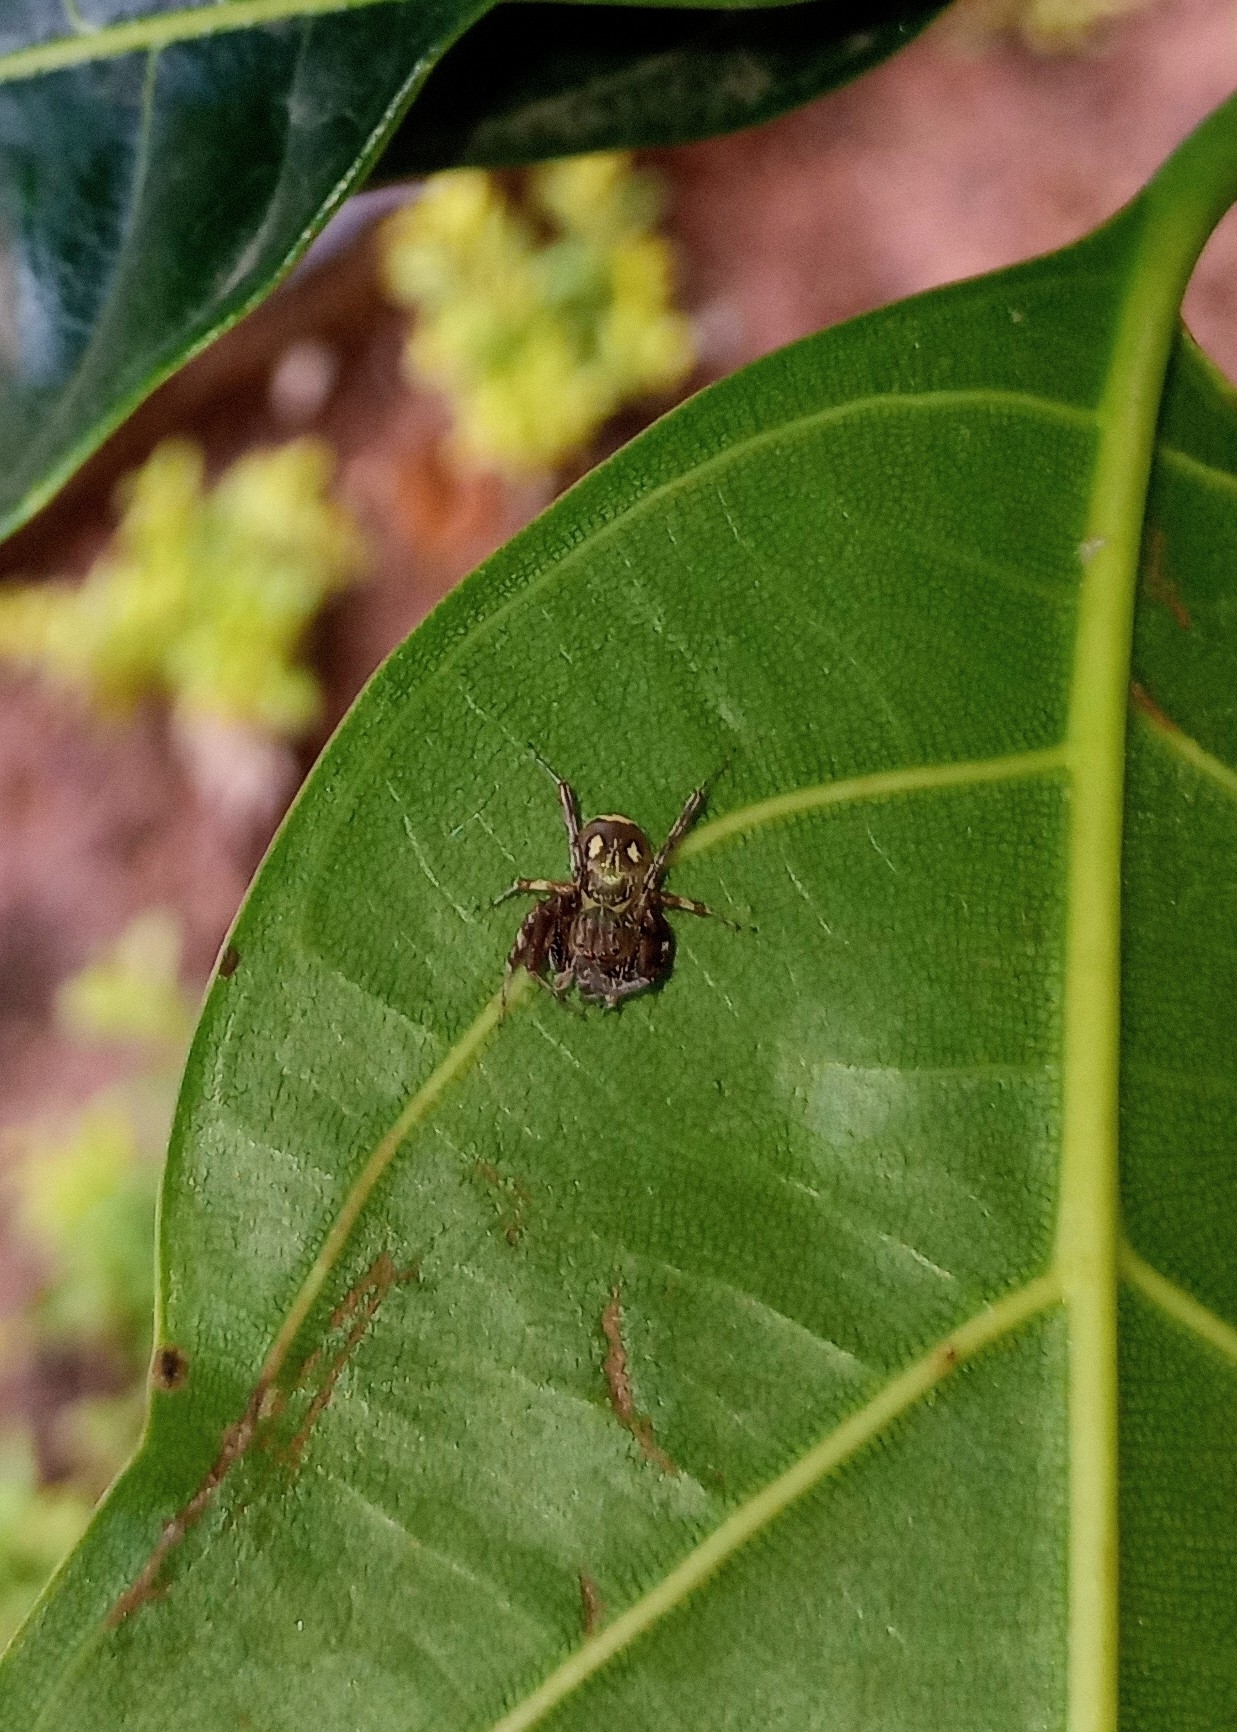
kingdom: Animalia
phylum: Arthropoda
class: Arachnida
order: Araneae
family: Salticidae
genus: Brettus
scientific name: Brettus cingulatus
